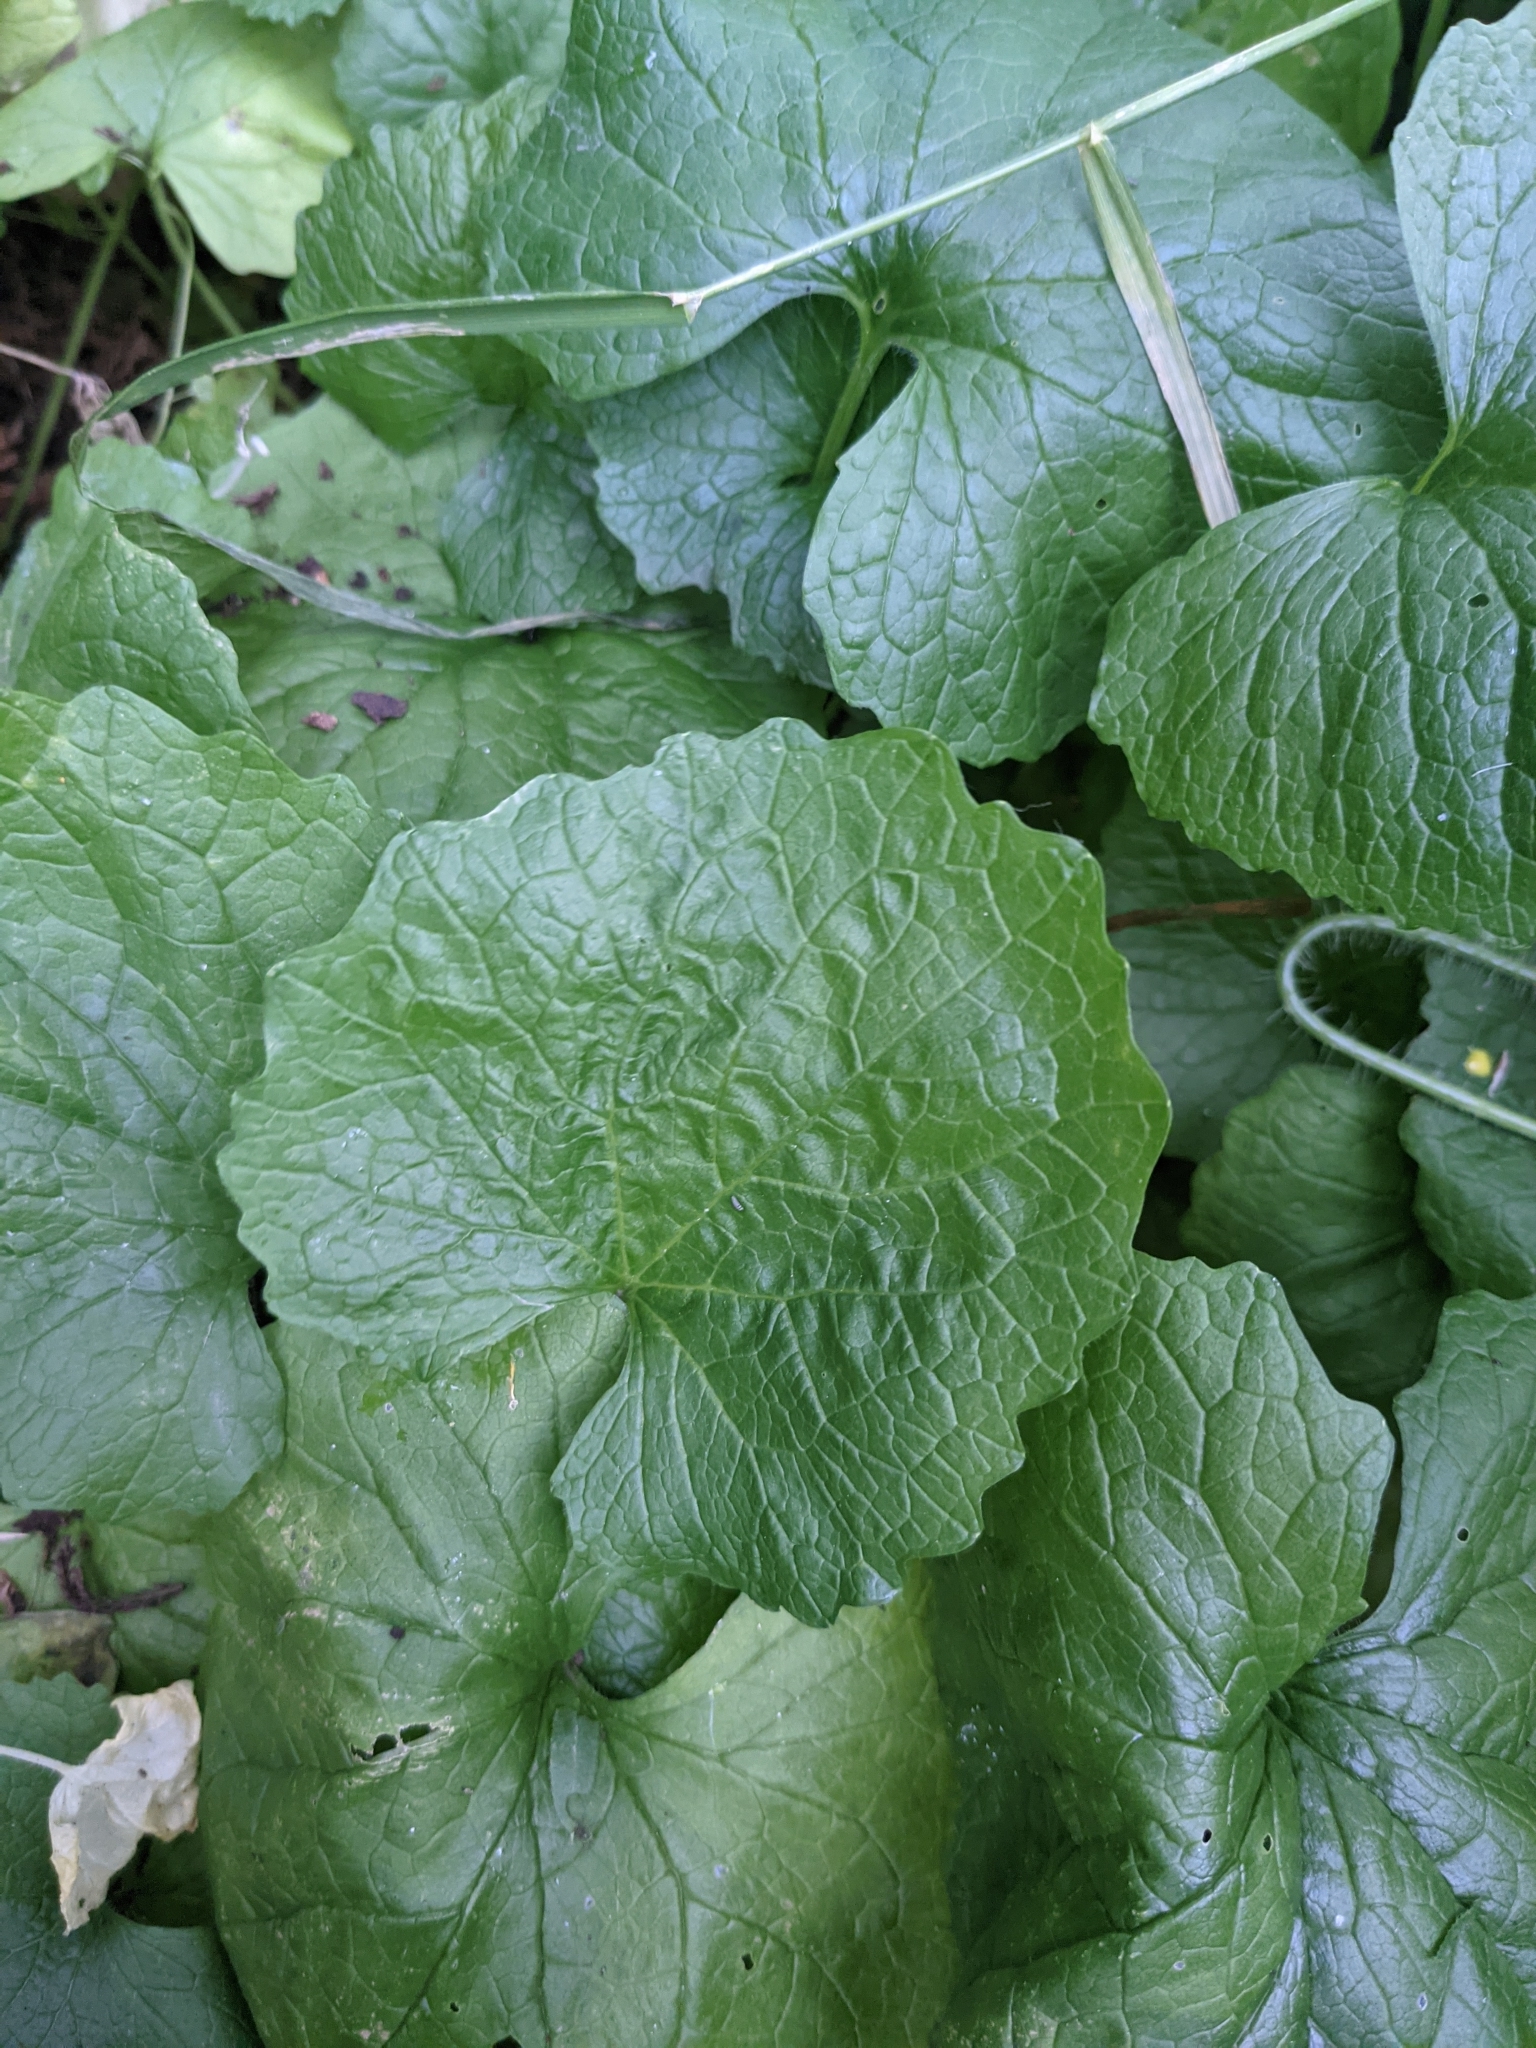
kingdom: Plantae
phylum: Tracheophyta
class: Magnoliopsida
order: Brassicales
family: Brassicaceae
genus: Alliaria
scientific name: Alliaria petiolata
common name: Garlic mustard
